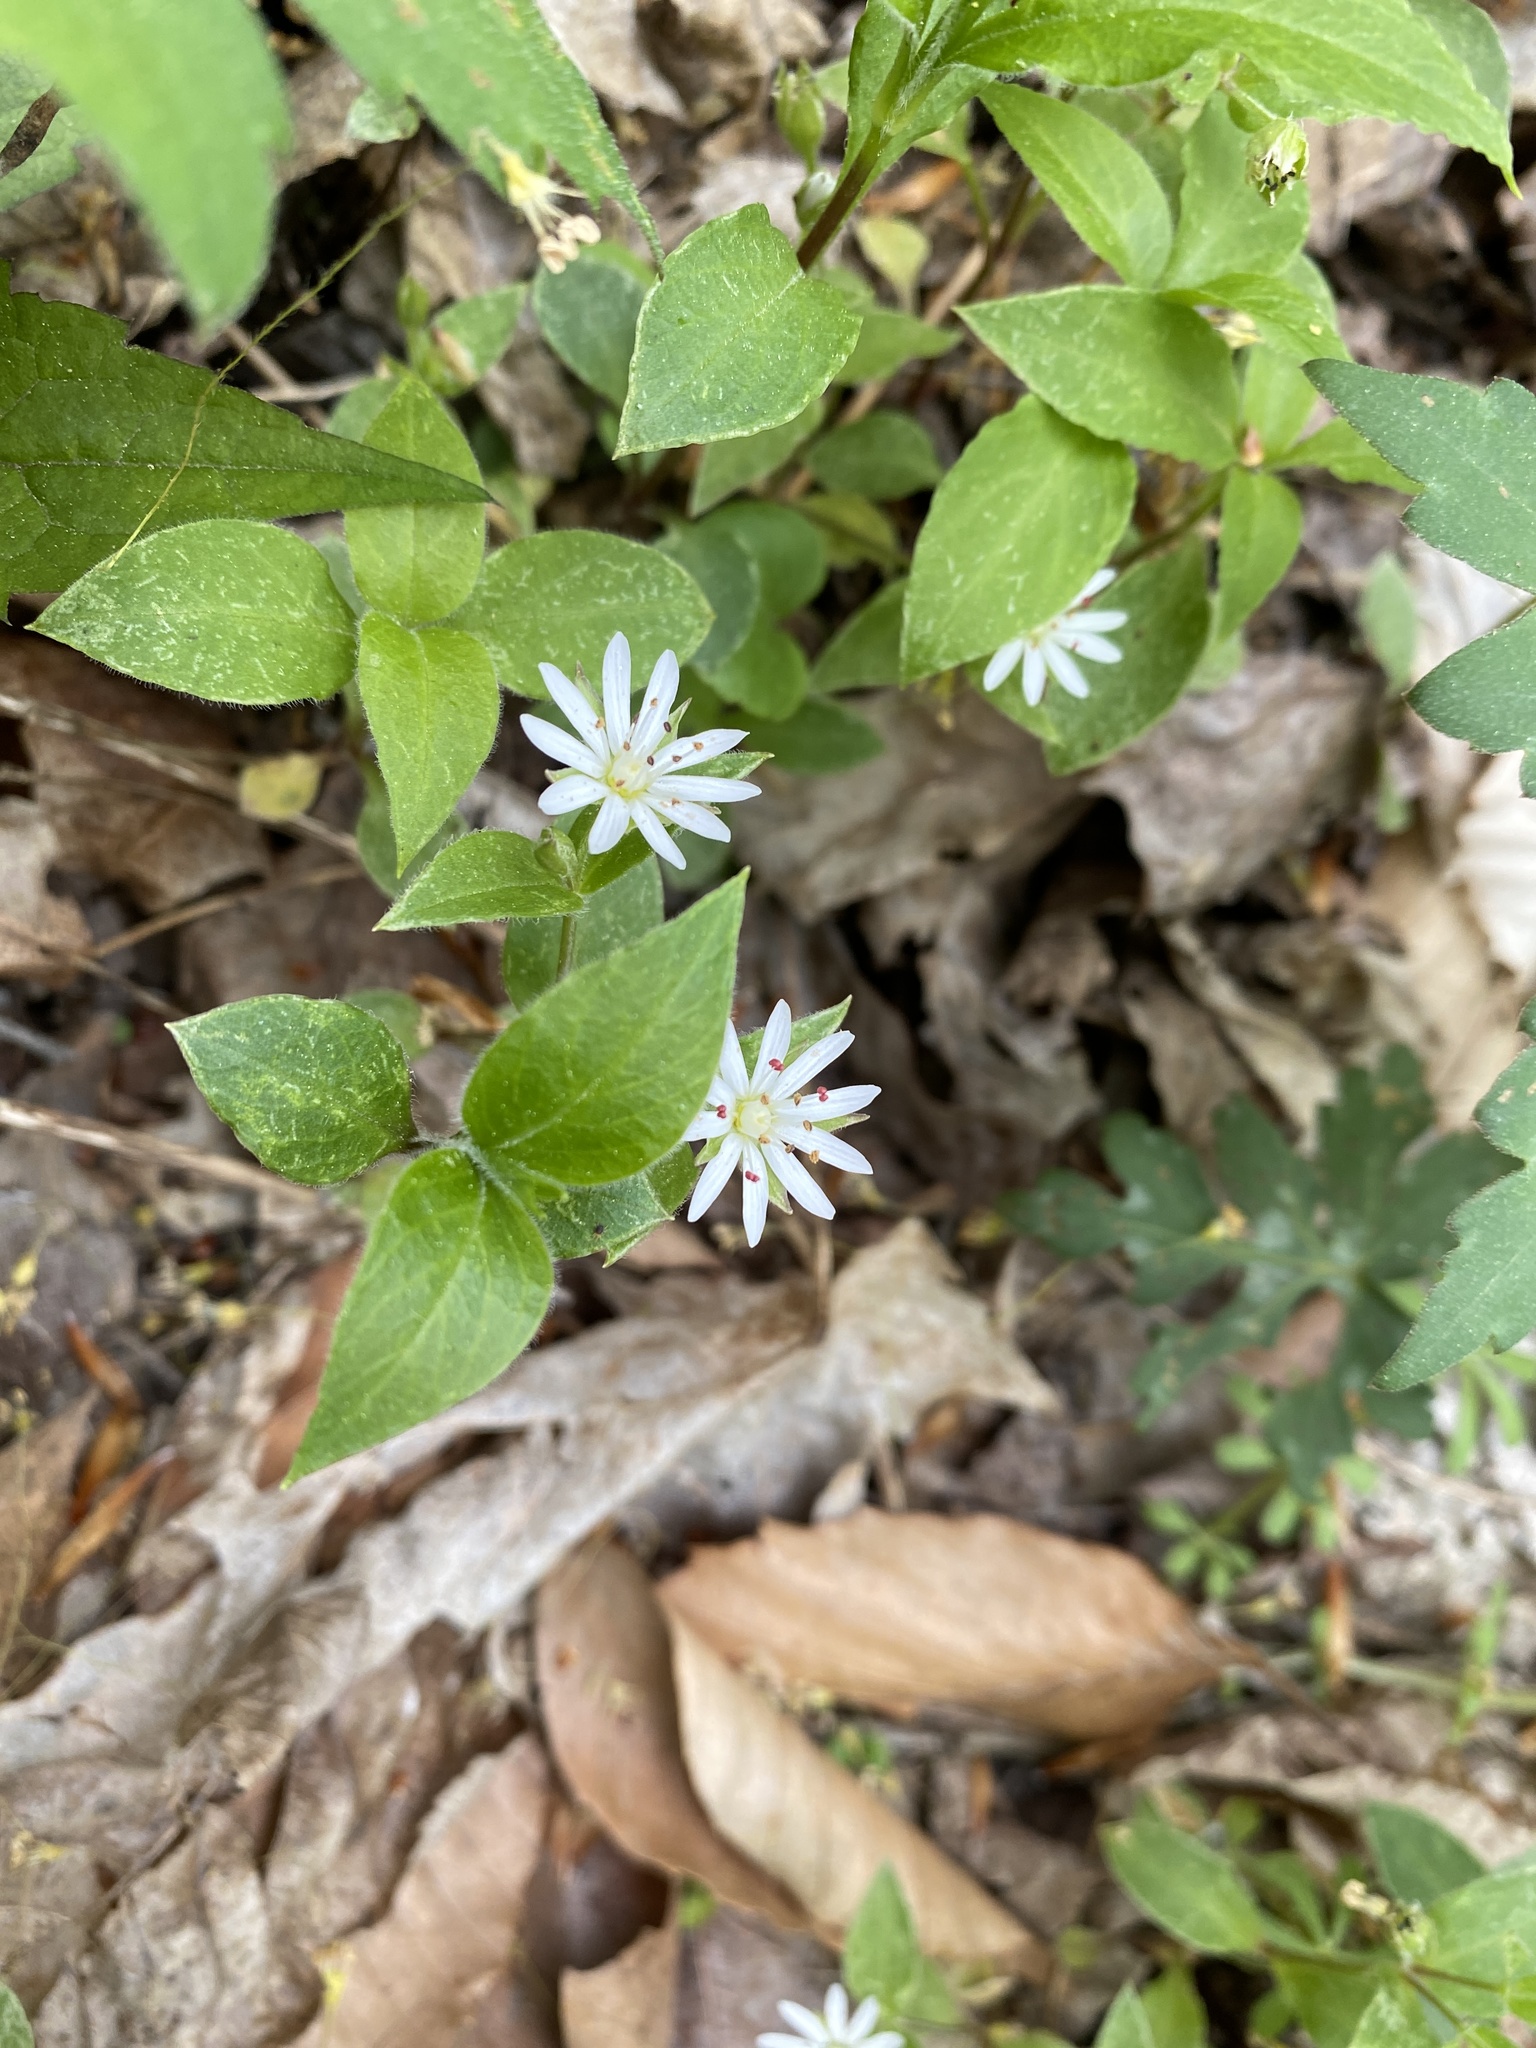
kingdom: Plantae
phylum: Tracheophyta
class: Magnoliopsida
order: Caryophyllales
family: Caryophyllaceae
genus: Stellaria
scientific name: Stellaria pubera
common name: Star chickweed
